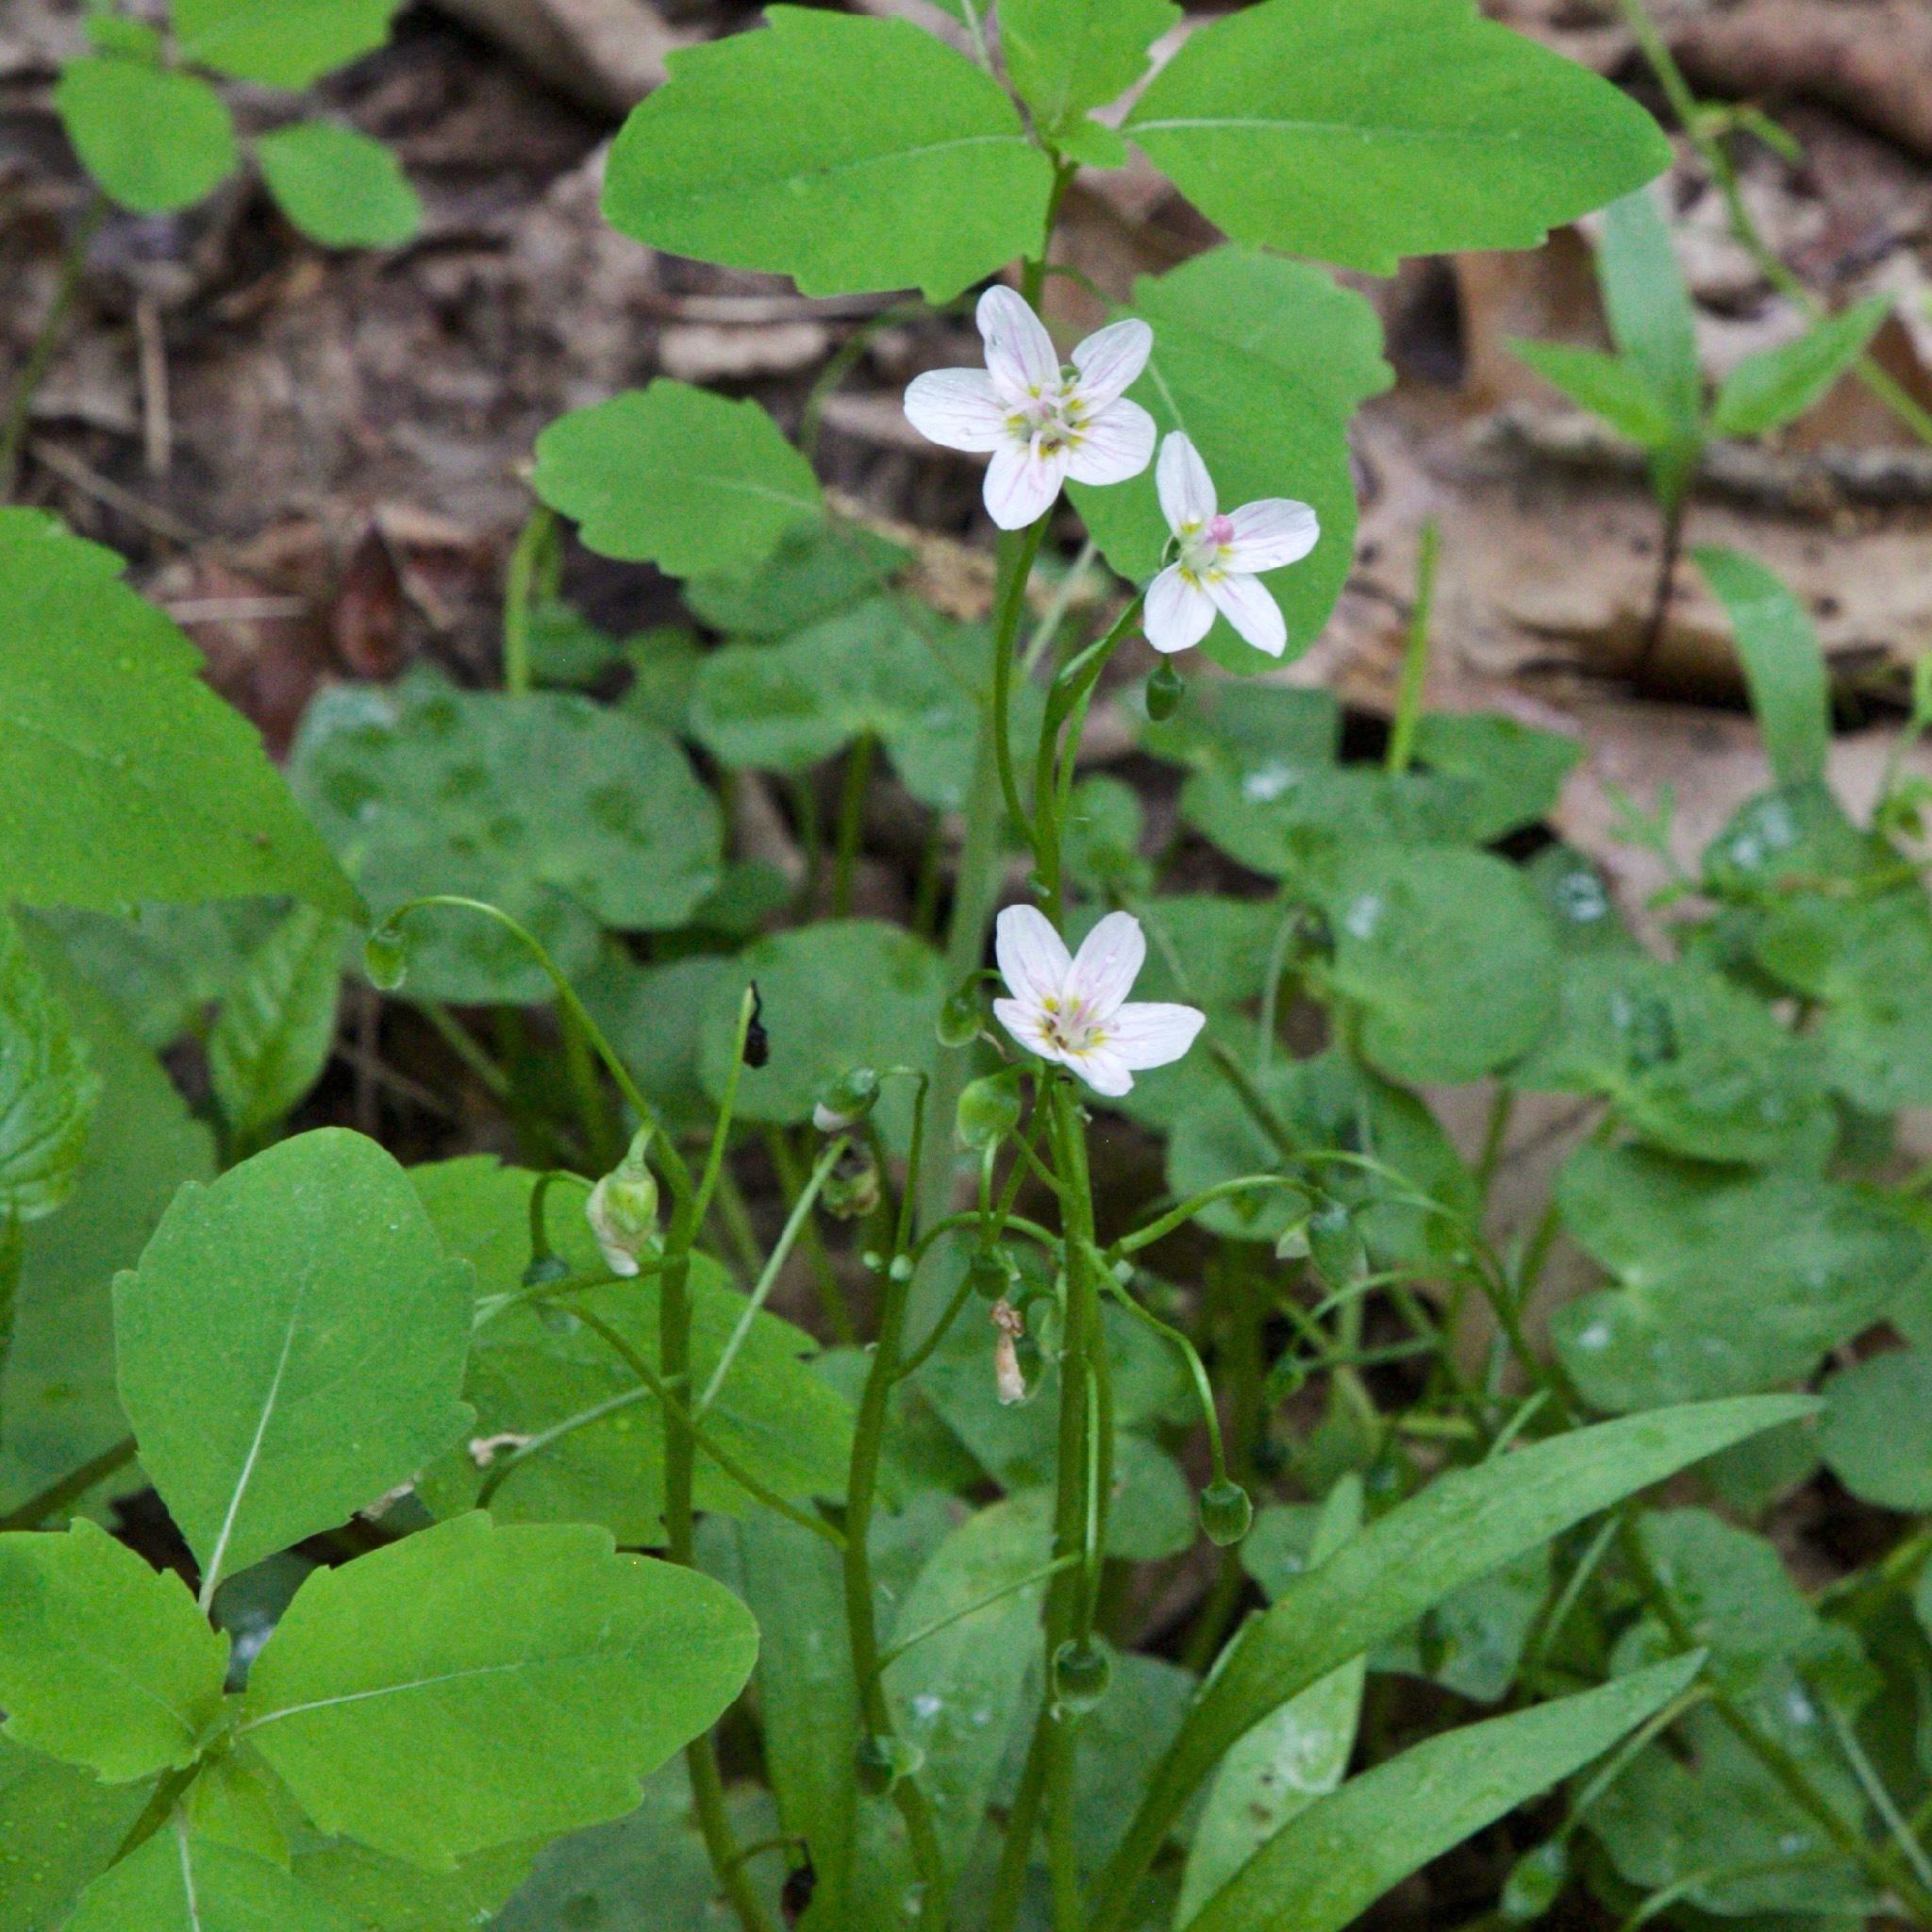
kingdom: Plantae
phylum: Tracheophyta
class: Magnoliopsida
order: Caryophyllales
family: Montiaceae
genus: Claytonia
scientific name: Claytonia virginica
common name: Virginia springbeauty
